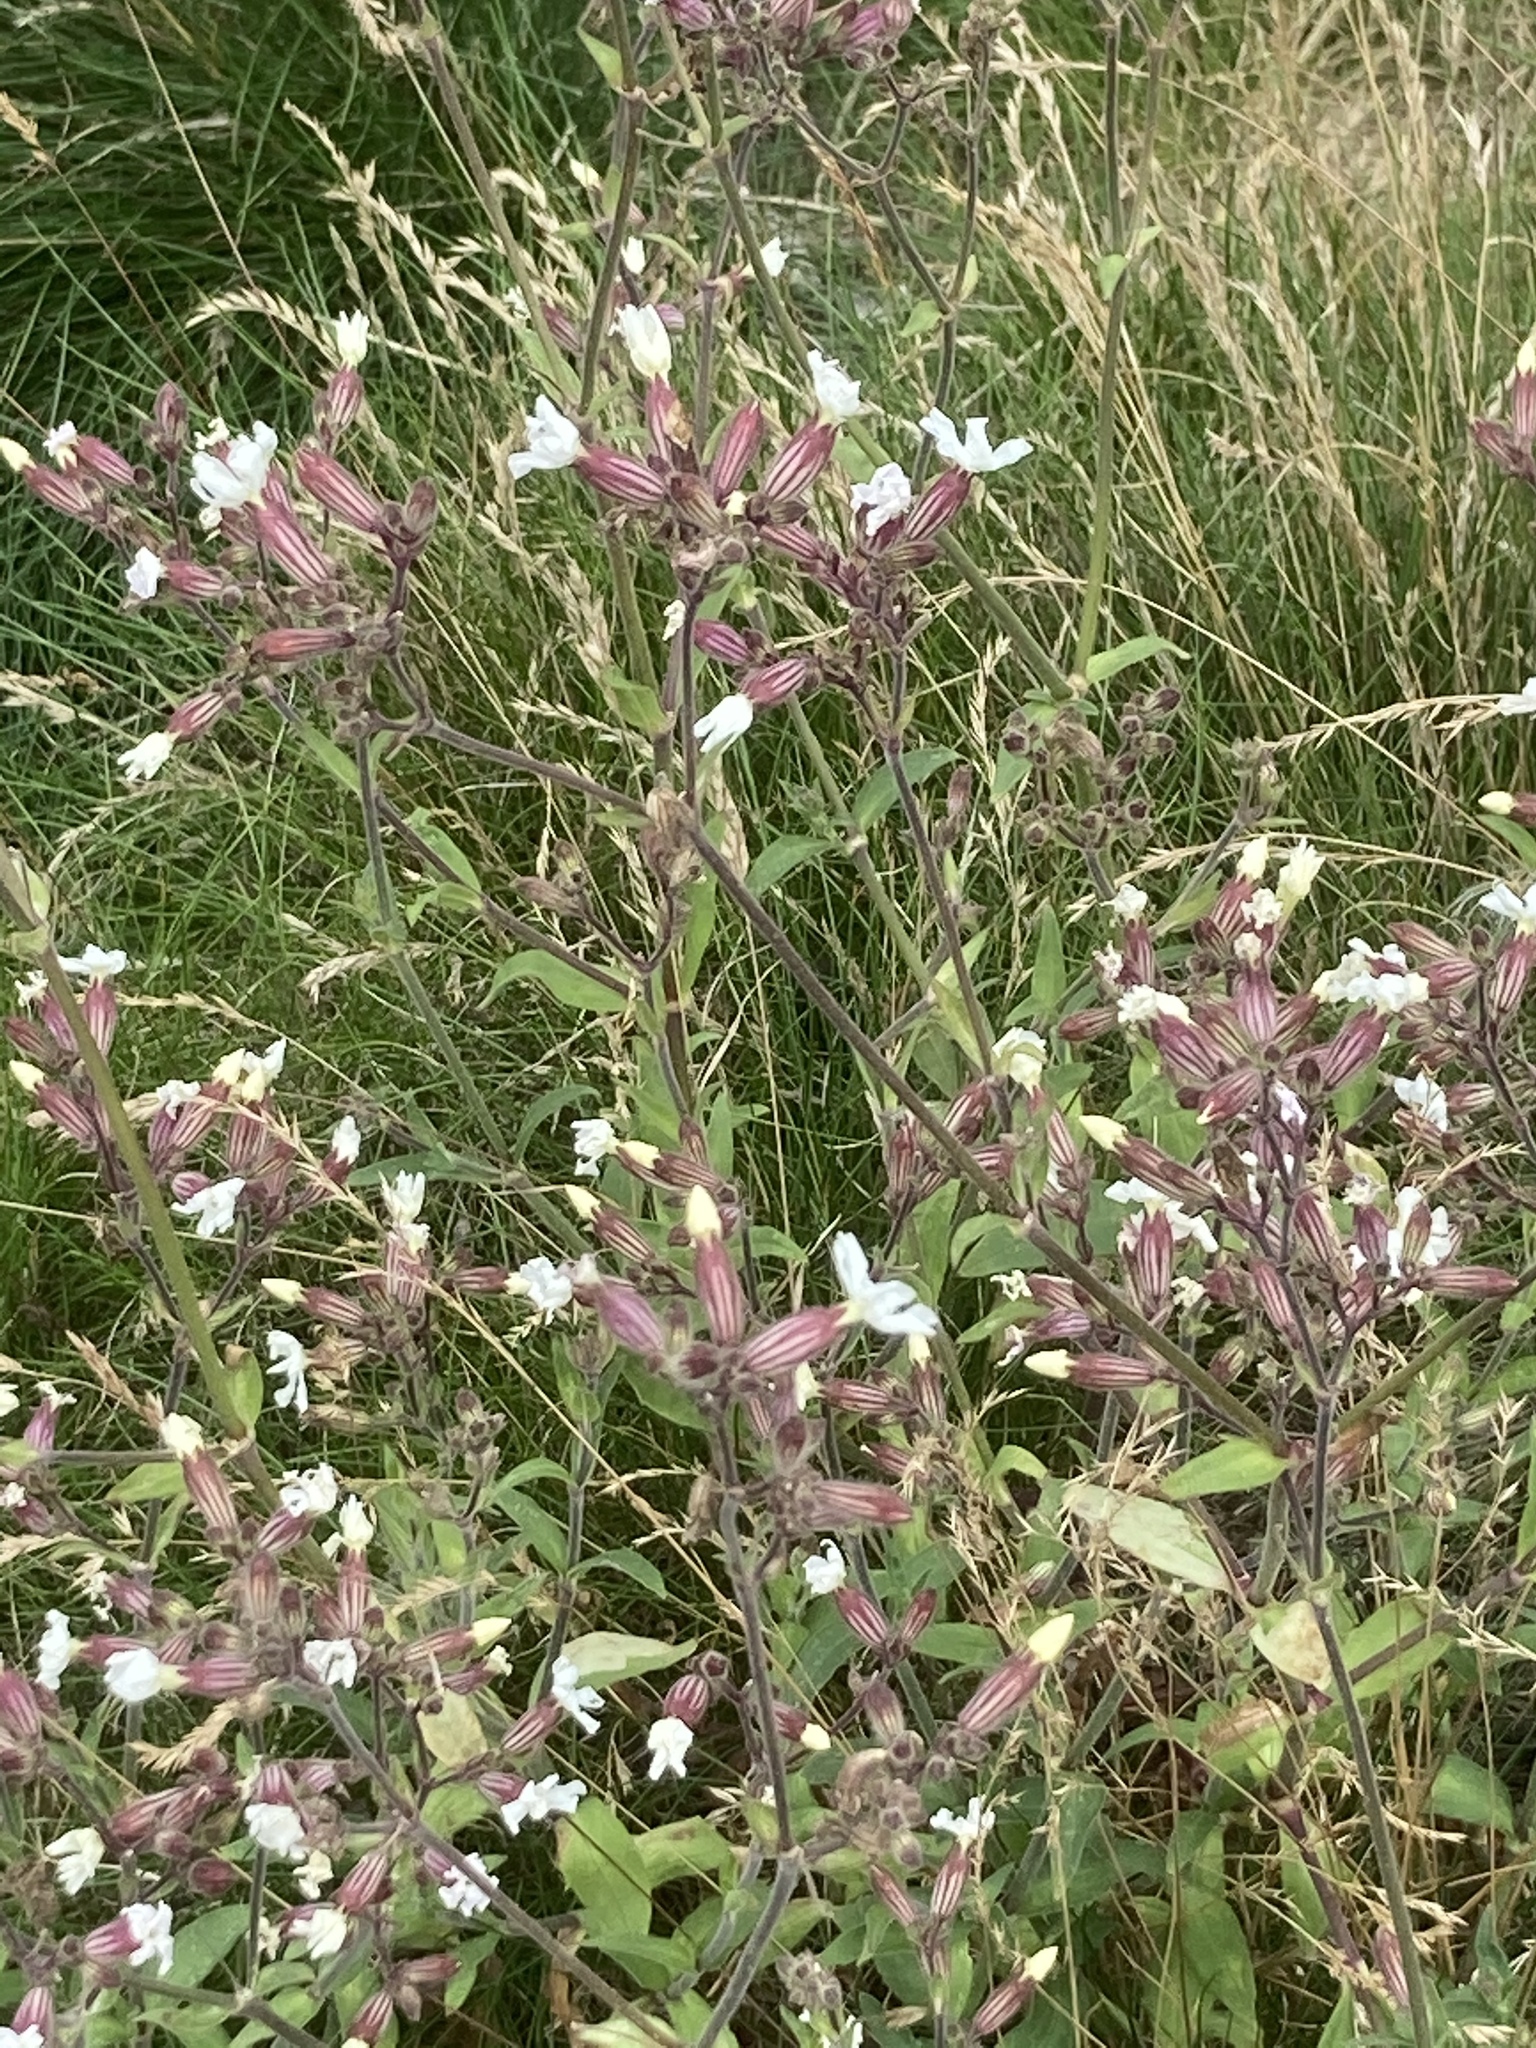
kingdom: Plantae
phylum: Tracheophyta
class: Magnoliopsida
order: Caryophyllales
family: Caryophyllaceae
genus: Silene
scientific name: Silene latifolia
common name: White campion
